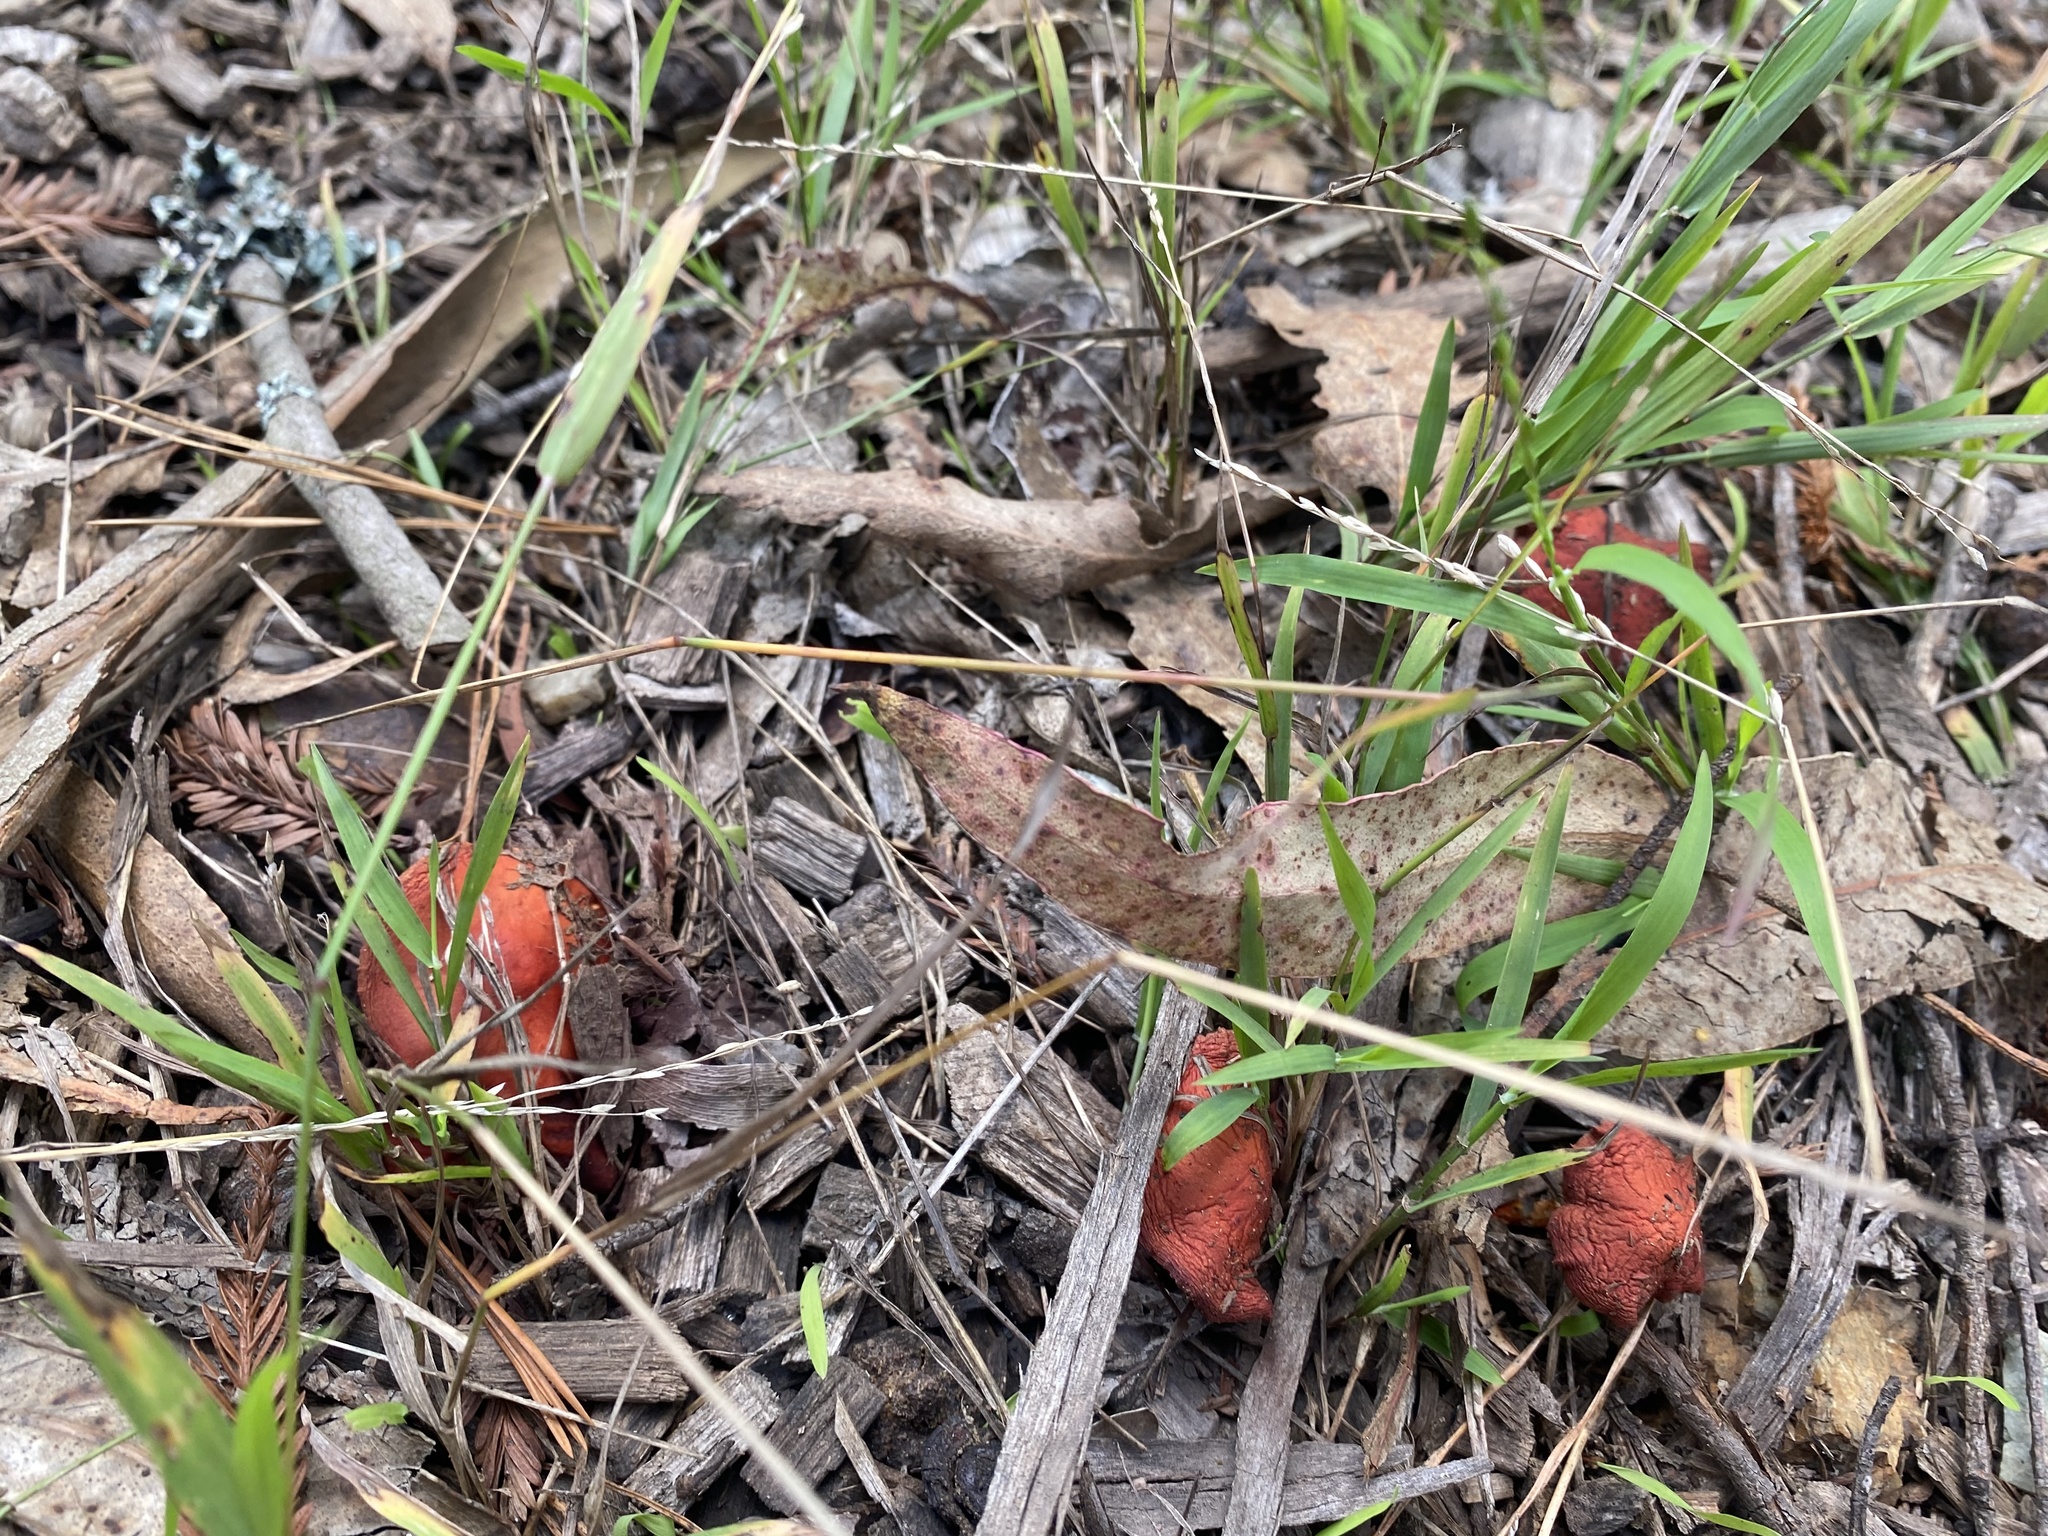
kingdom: Fungi
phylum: Basidiomycota
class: Agaricomycetes
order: Agaricales
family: Strophariaceae
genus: Leratiomyces
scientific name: Leratiomyces ceres
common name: Redlead roundhead
